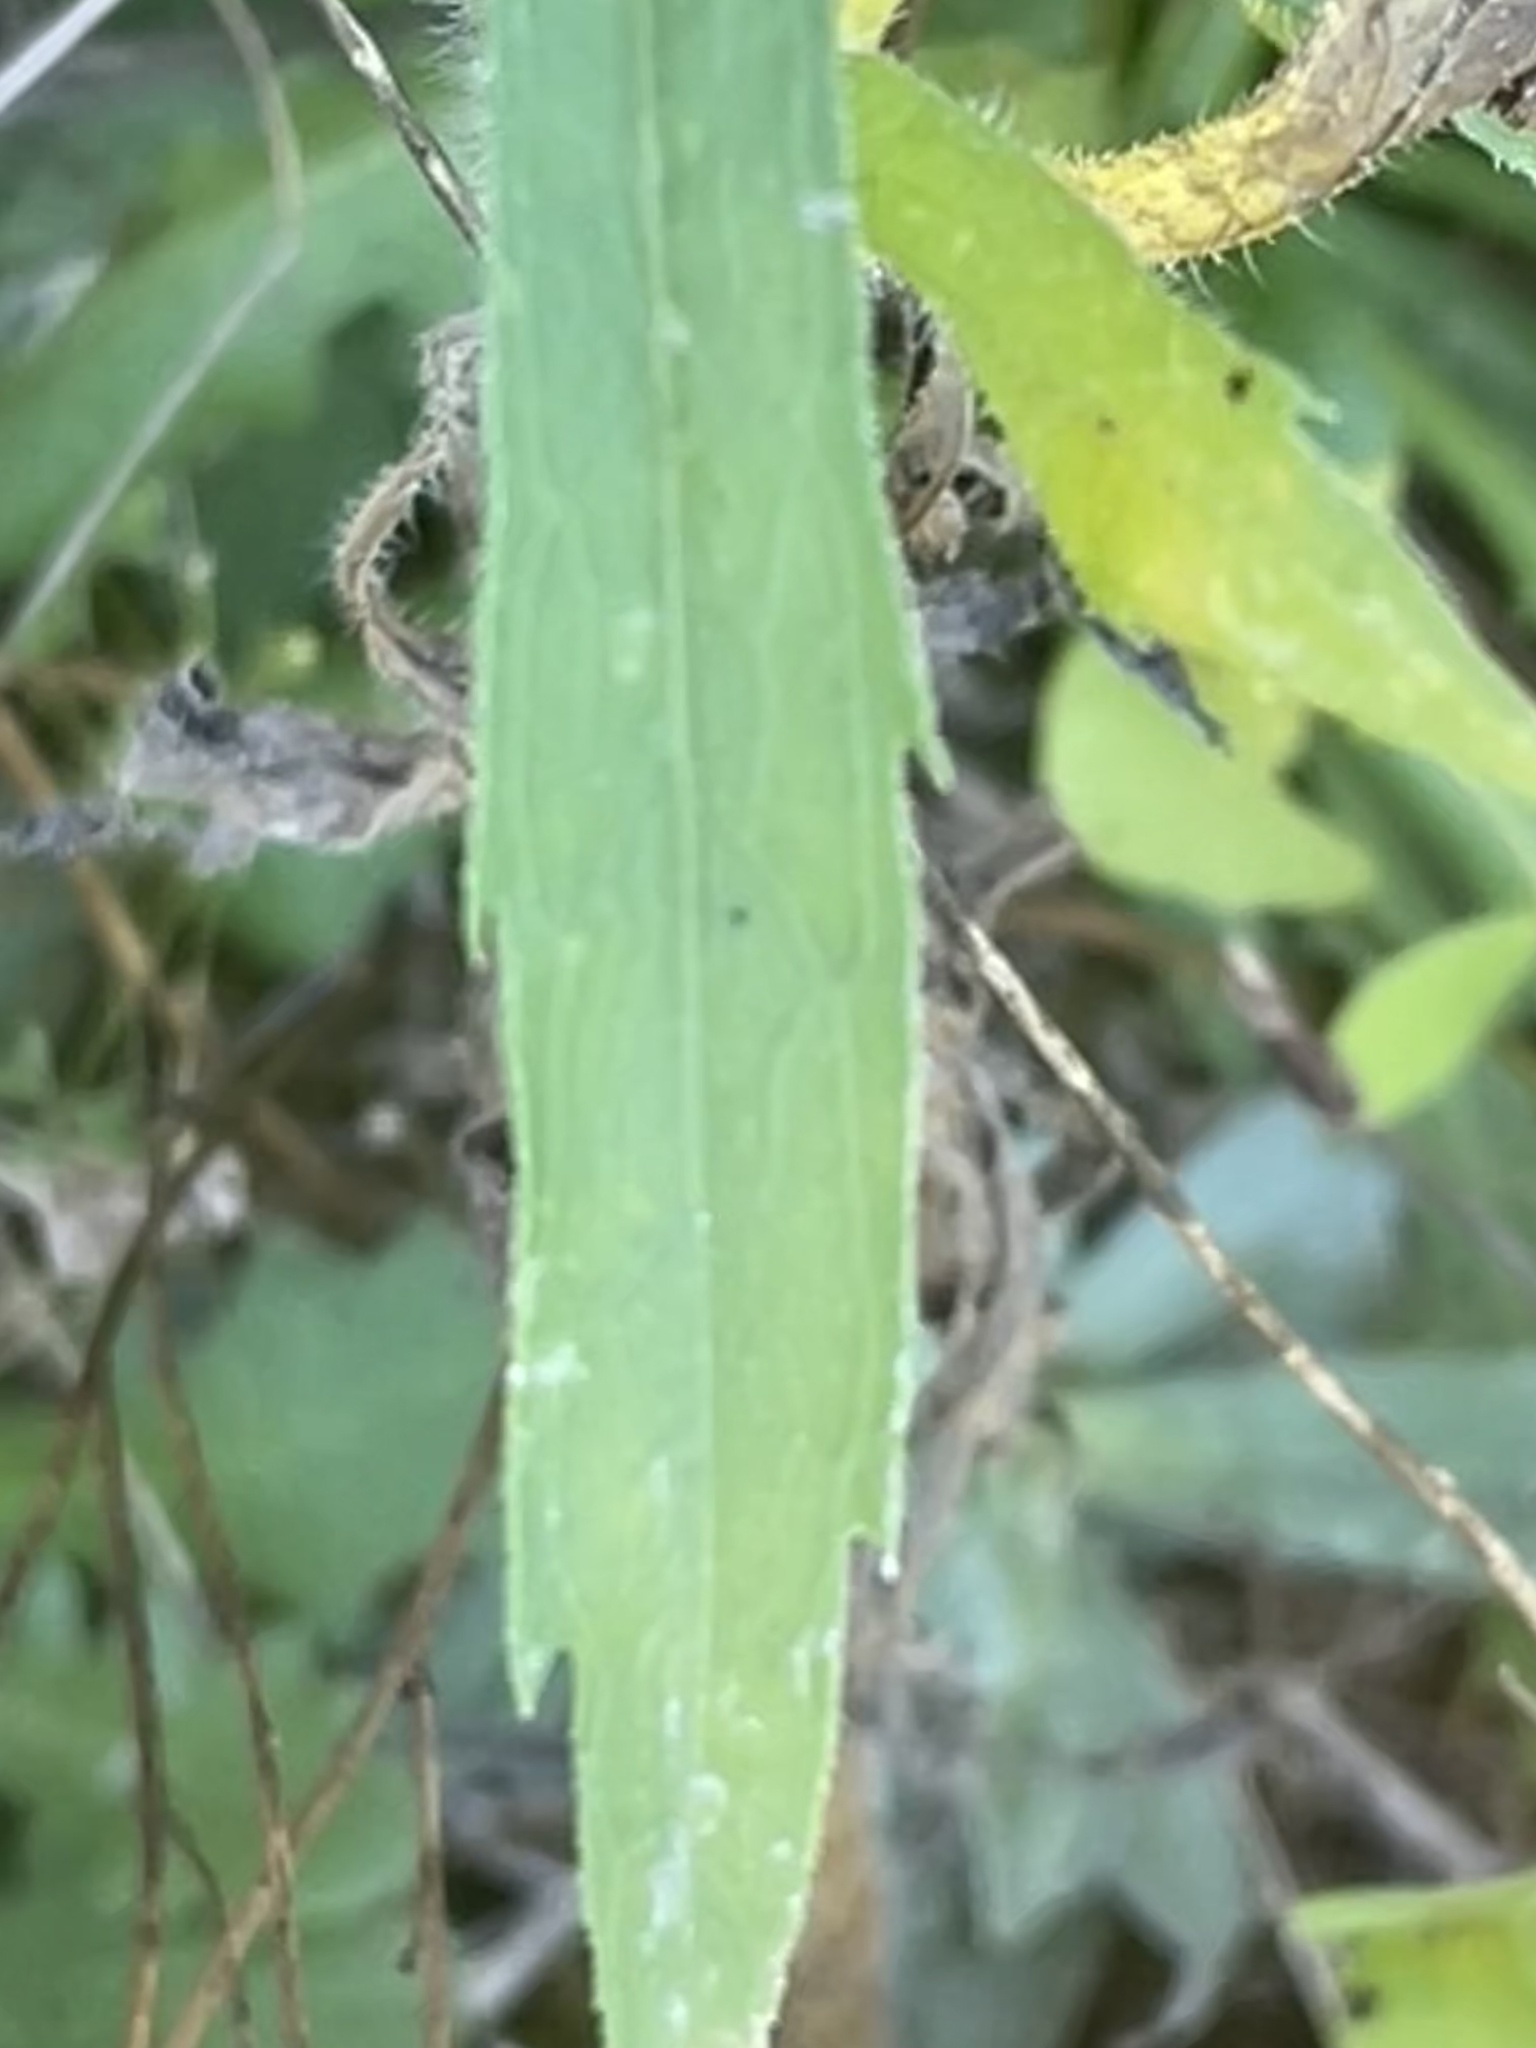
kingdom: Plantae
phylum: Tracheophyta
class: Magnoliopsida
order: Asterales
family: Asteraceae
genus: Erigeron
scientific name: Erigeron canadensis
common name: Canadian fleabane
